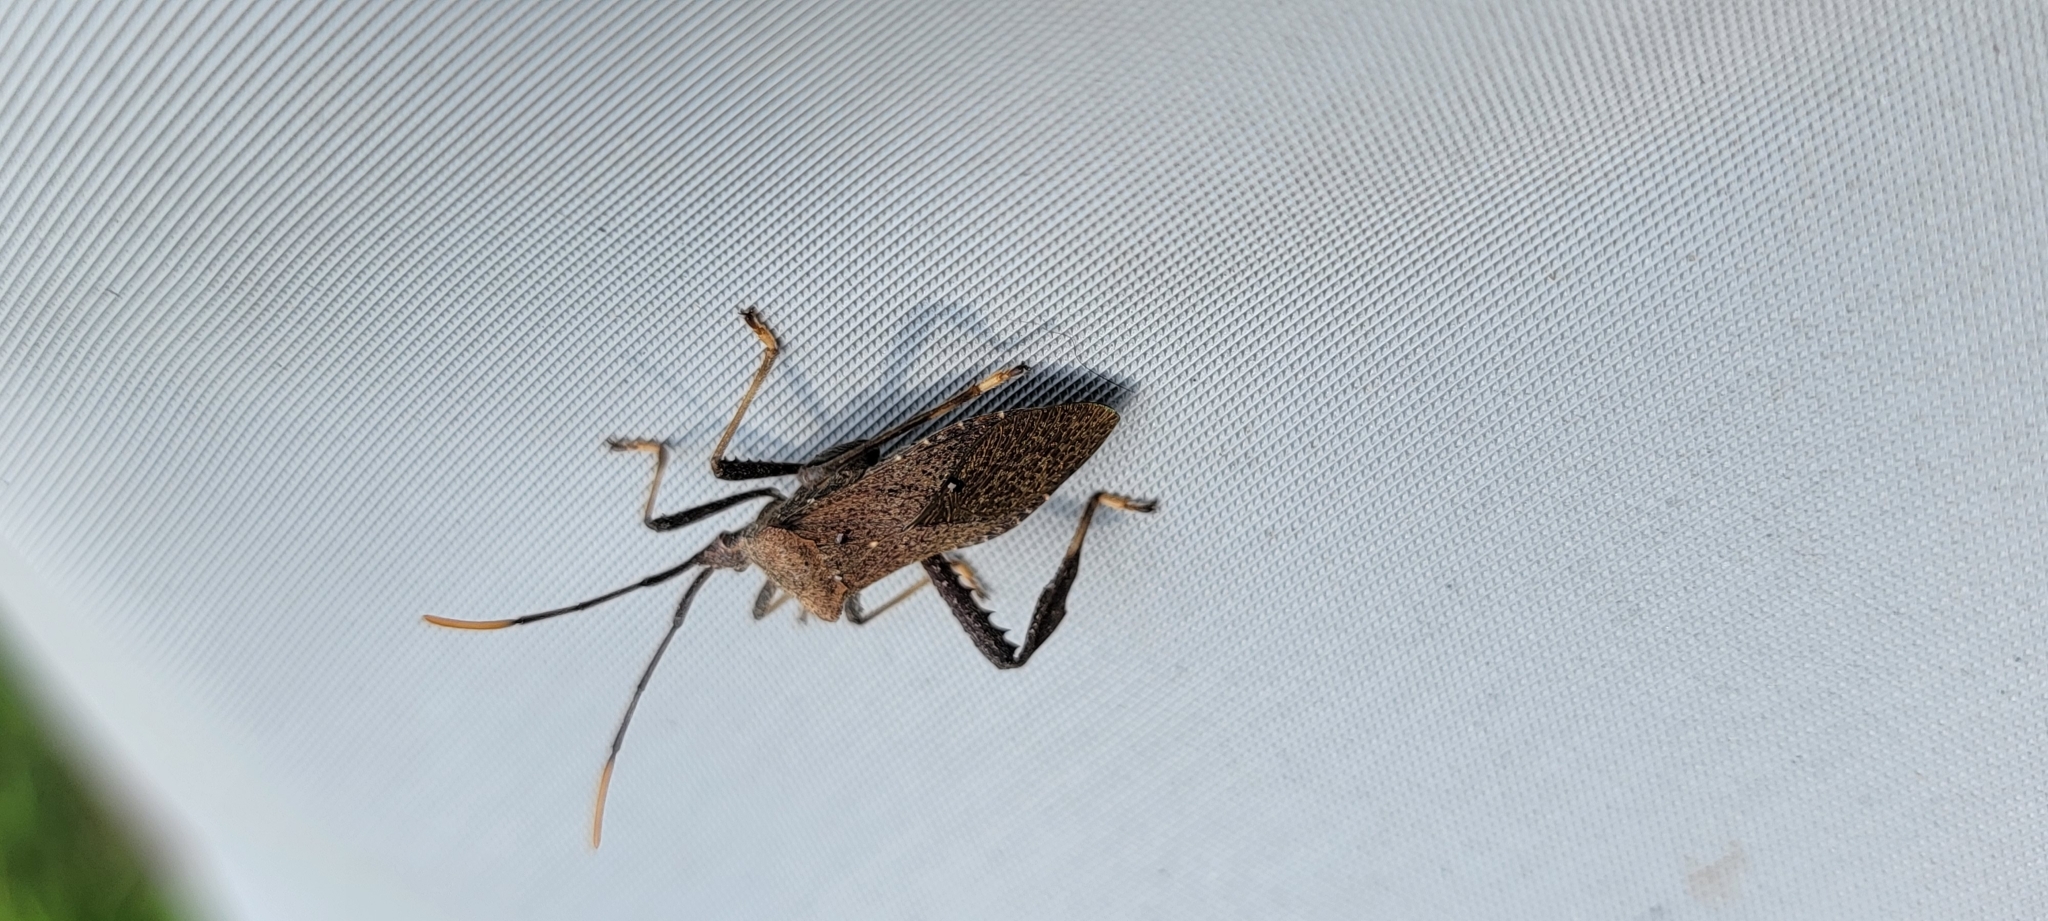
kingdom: Animalia
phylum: Arthropoda
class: Insecta
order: Hemiptera
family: Coreidae
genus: Acanthocephala
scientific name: Acanthocephala terminalis
